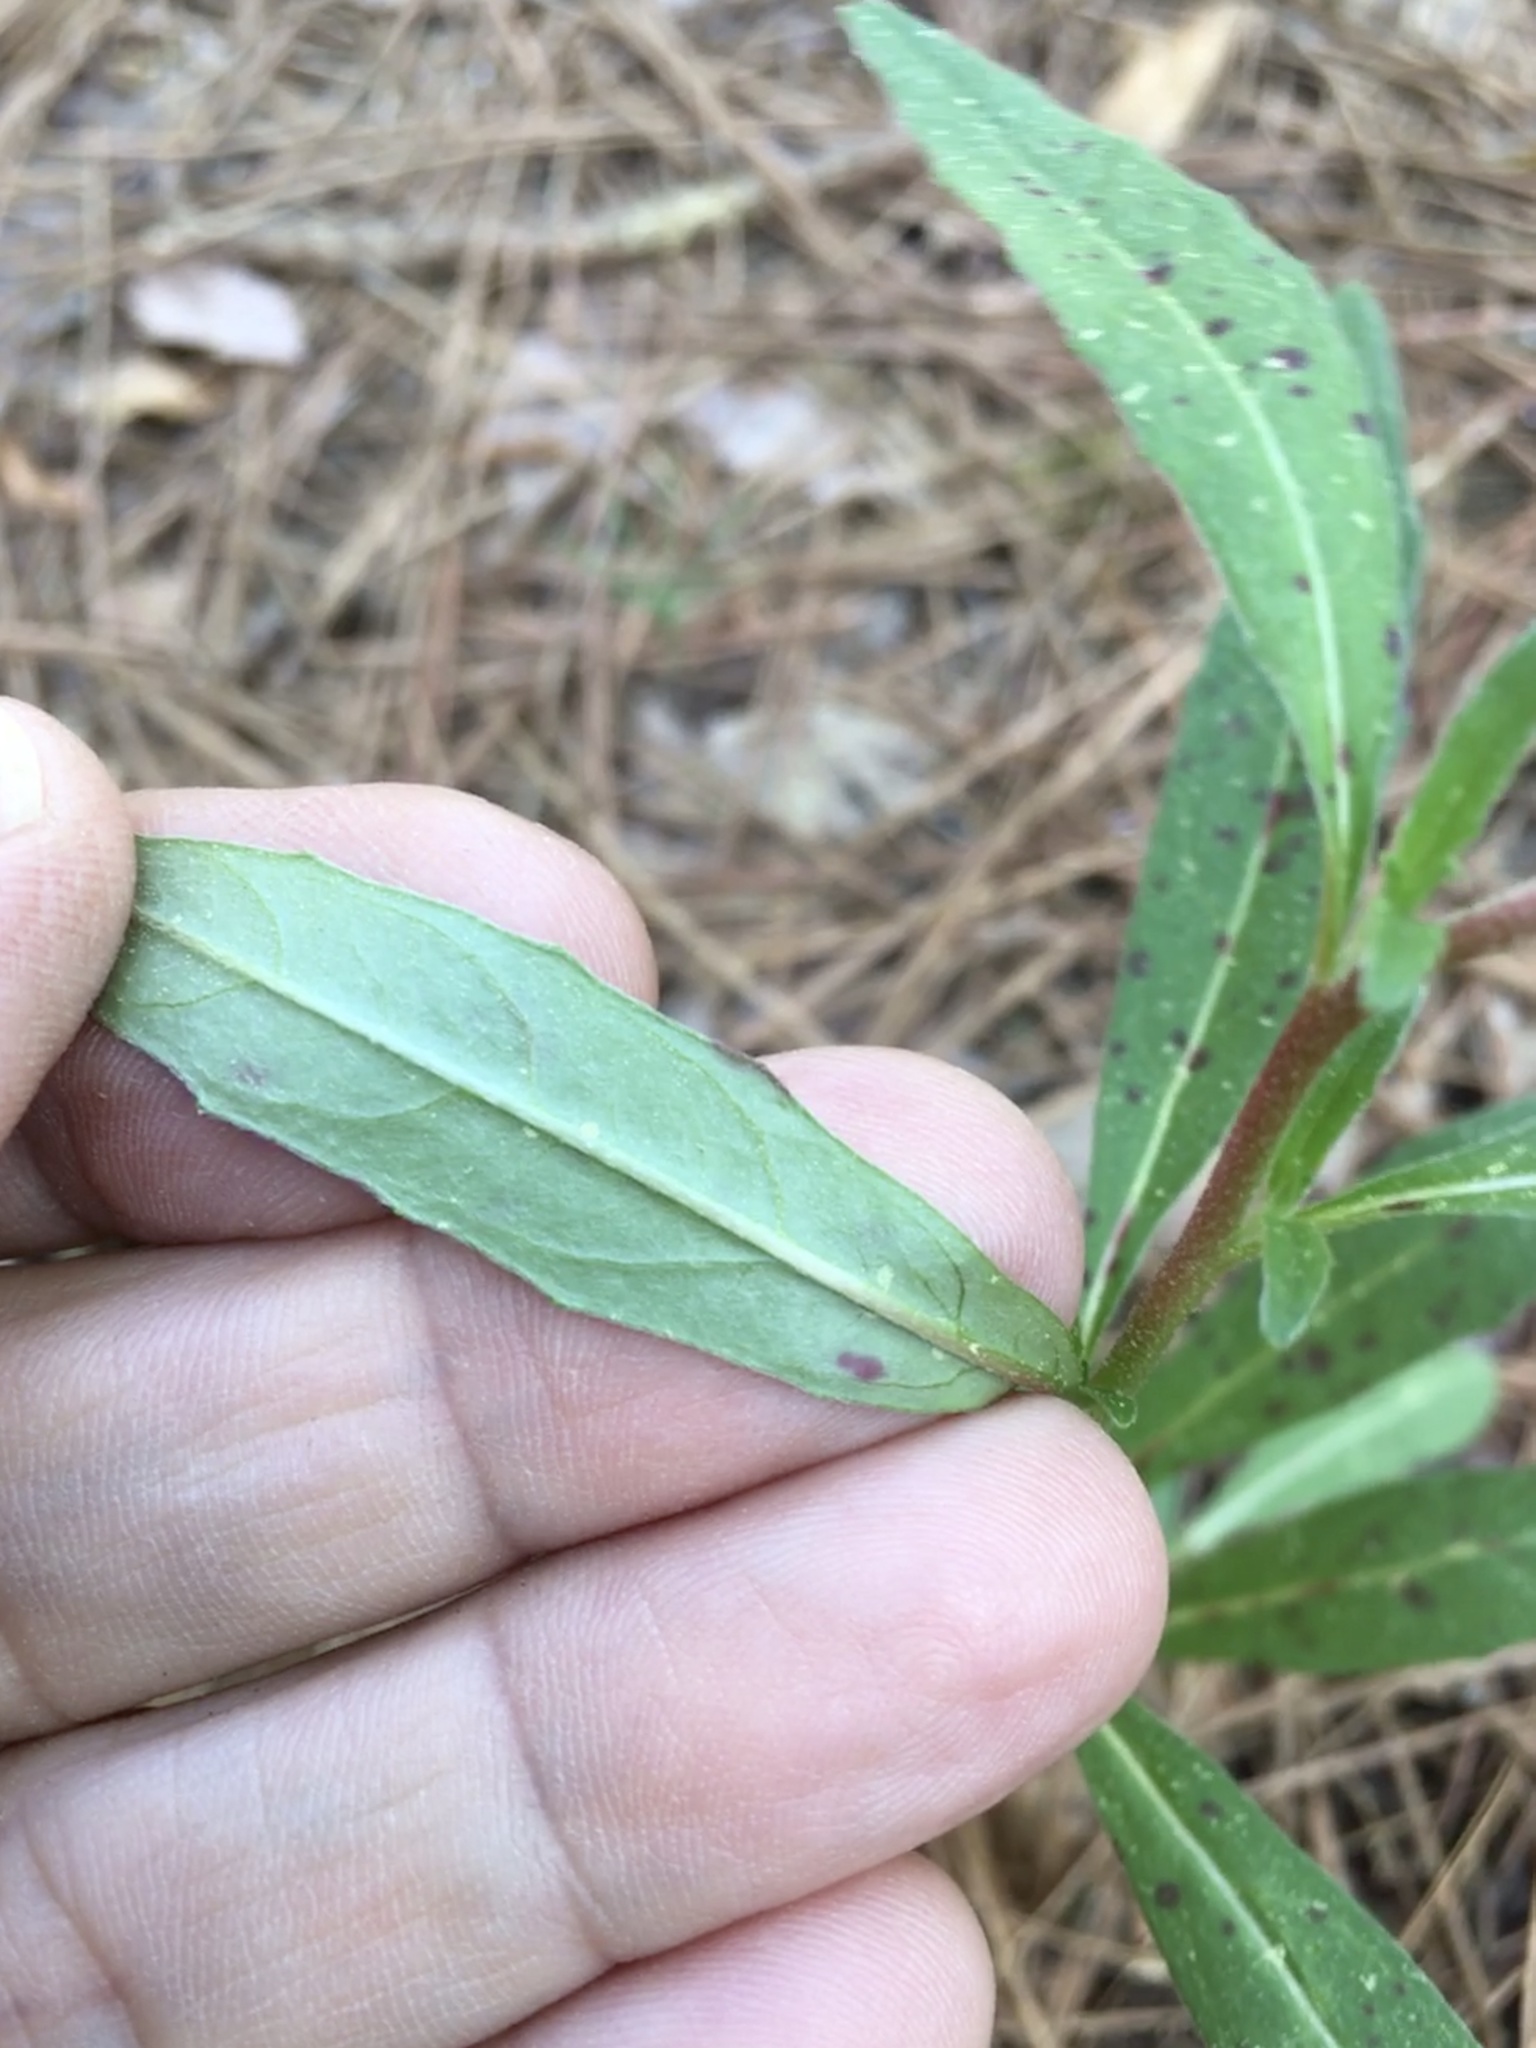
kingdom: Plantae
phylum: Tracheophyta
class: Magnoliopsida
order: Myrtales
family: Onagraceae
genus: Oenothera
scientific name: Oenothera fruticosa
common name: Southern sundrops
